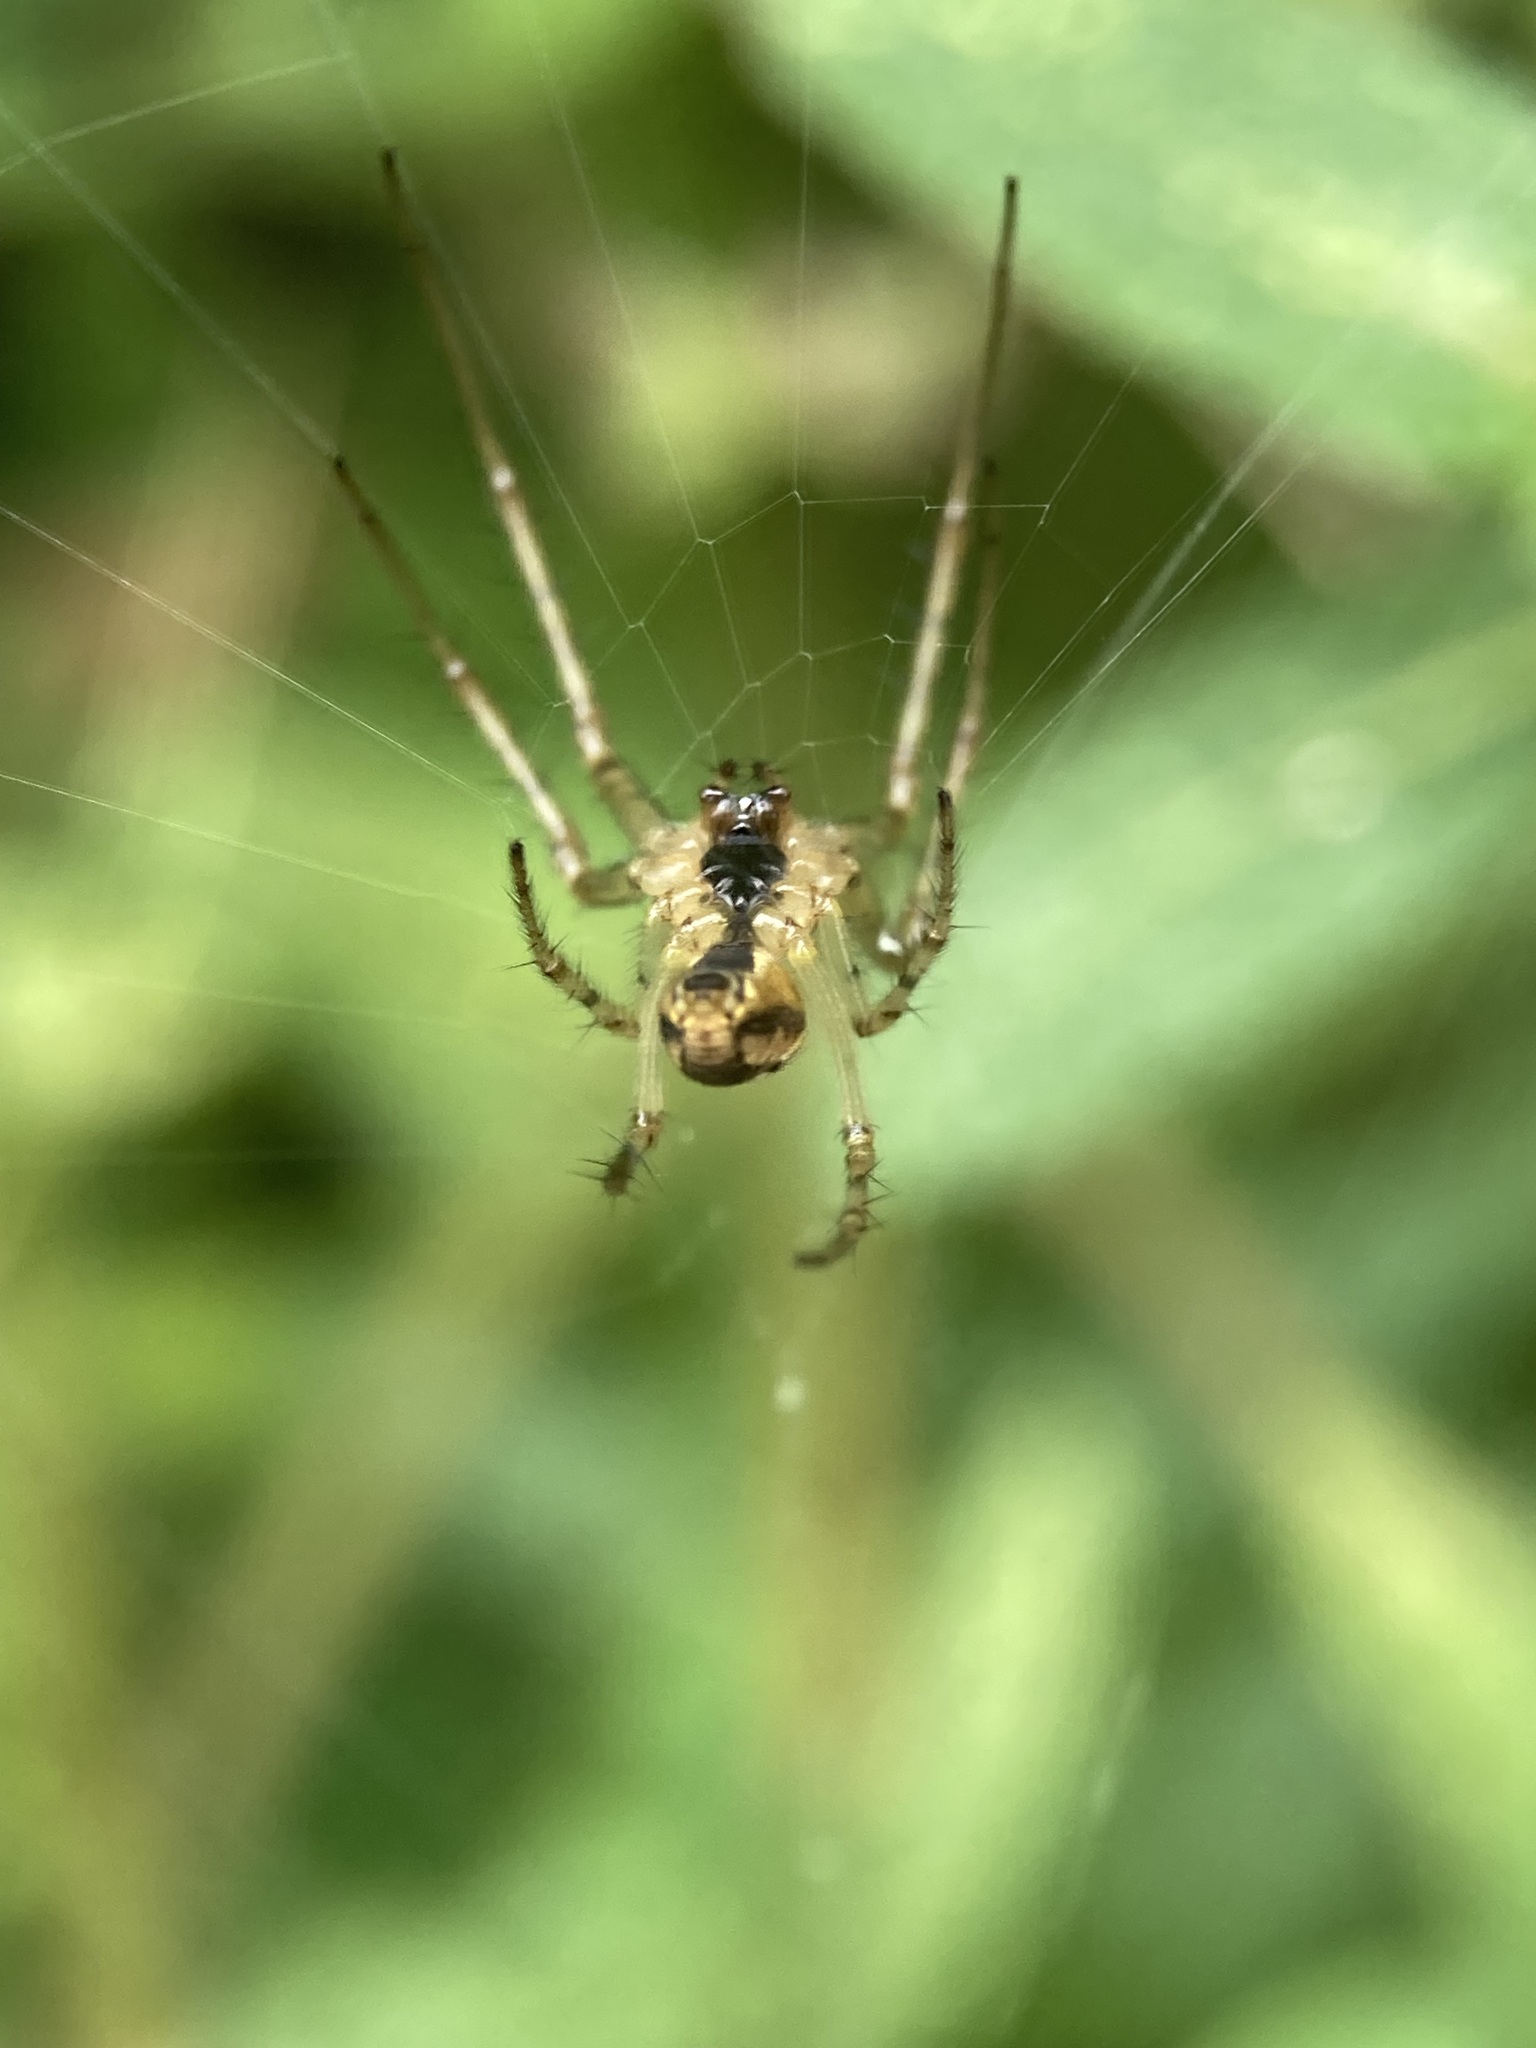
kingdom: Animalia
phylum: Arthropoda
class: Arachnida
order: Araneae
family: Tetragnathidae
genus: Metellina
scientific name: Metellina segmentata
